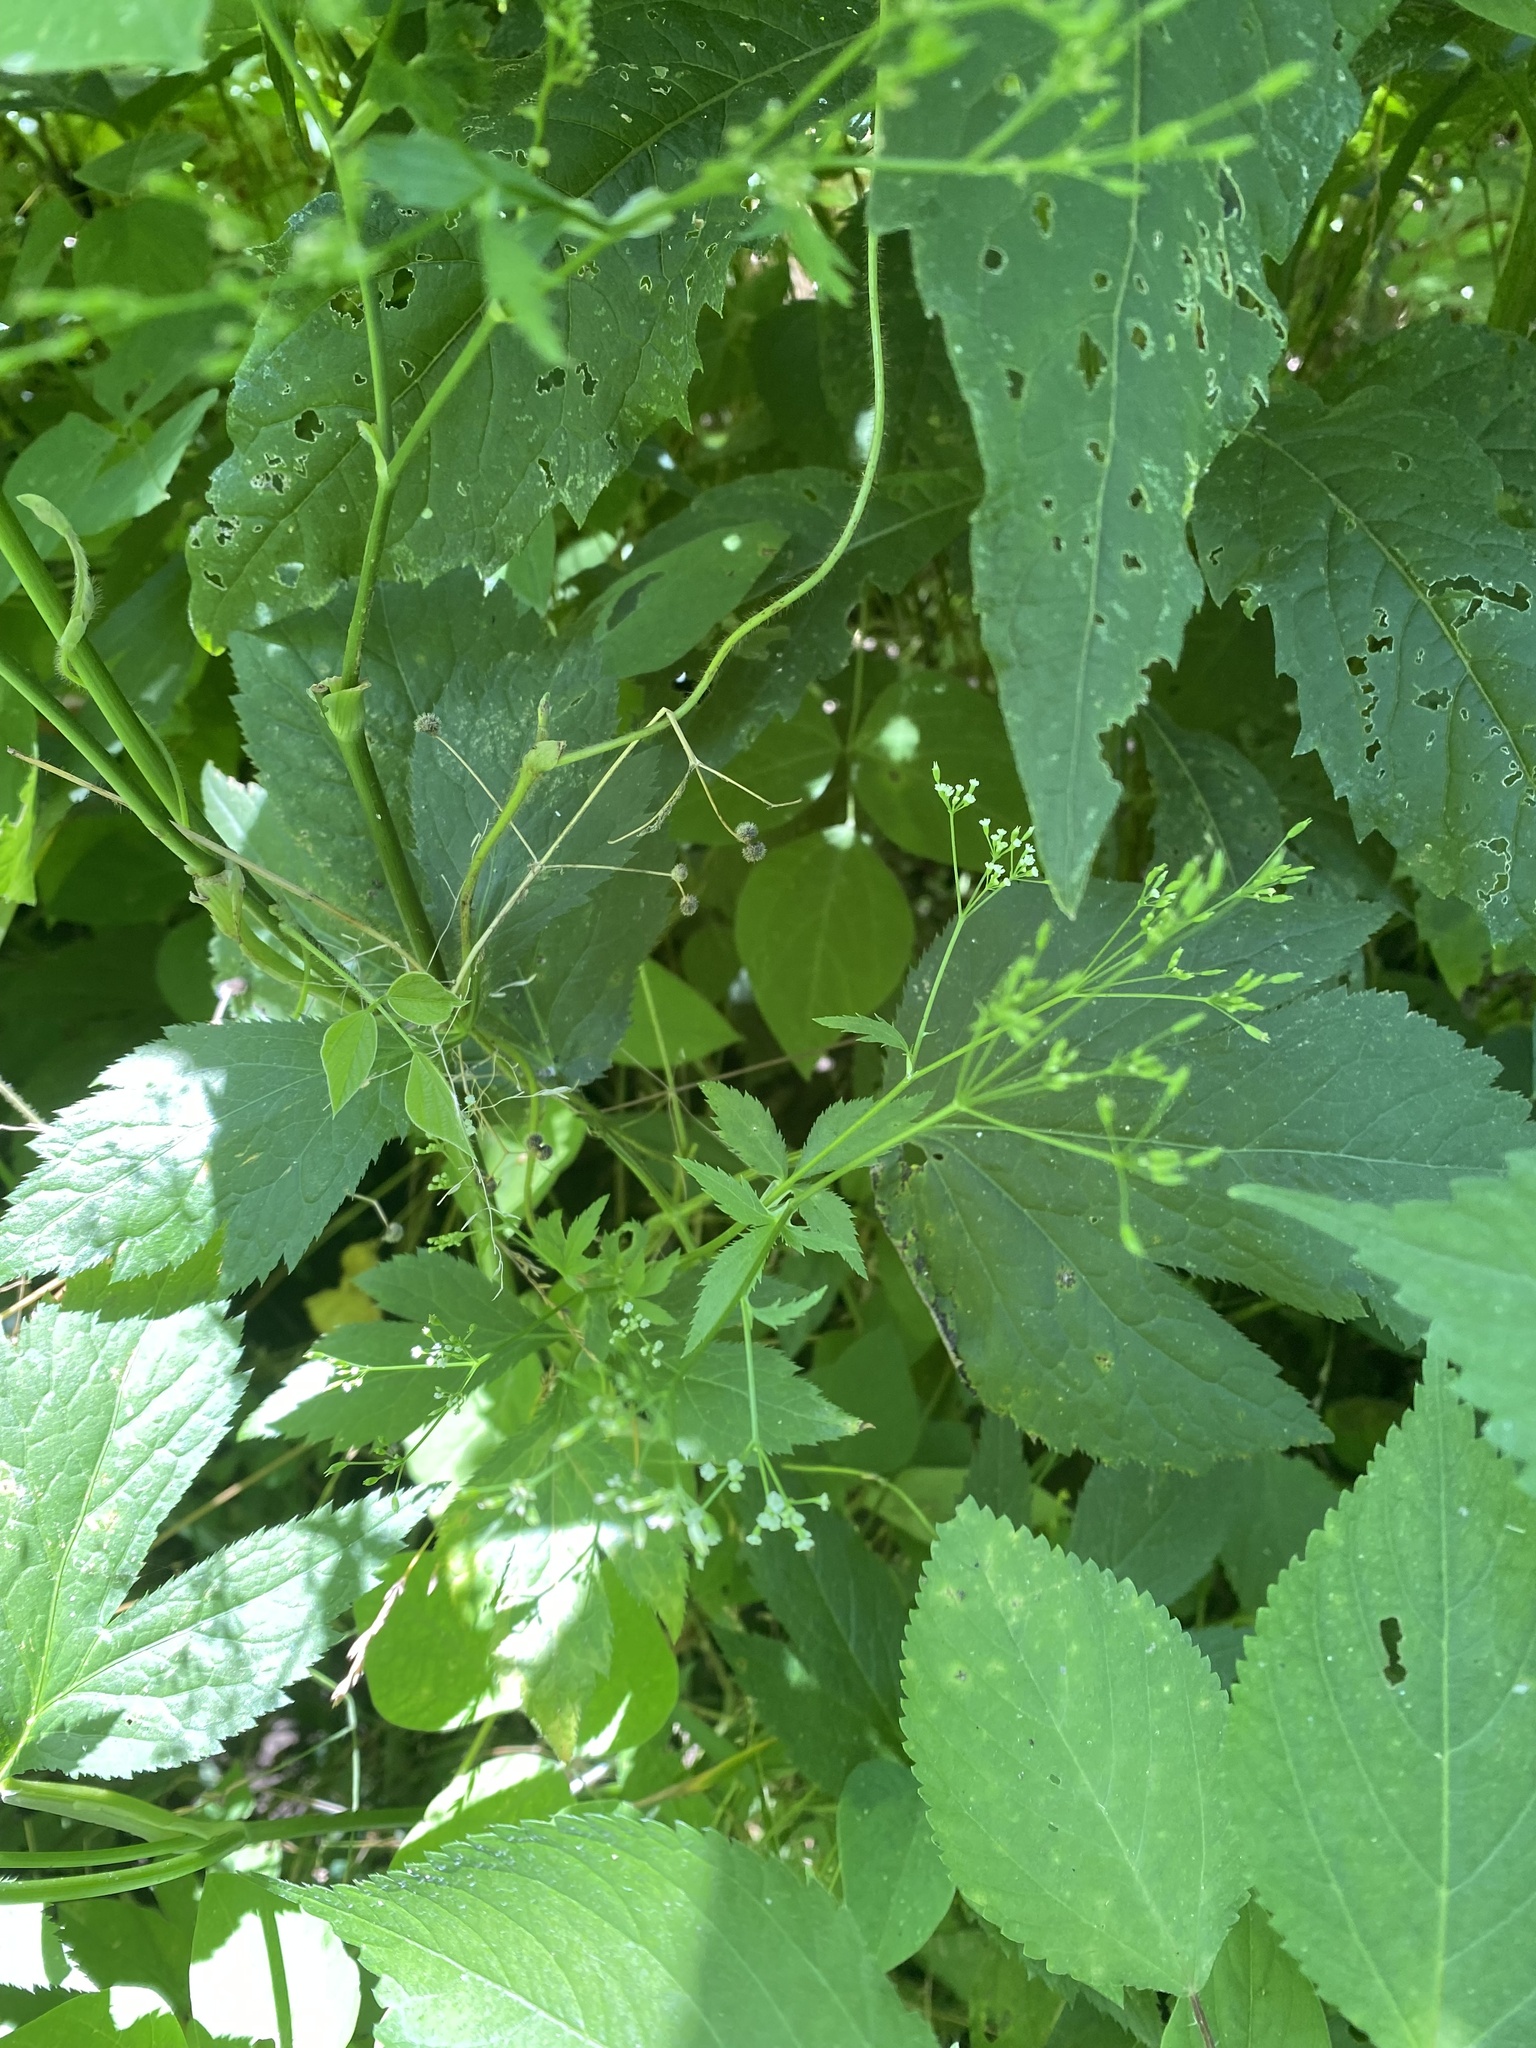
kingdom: Plantae
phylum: Tracheophyta
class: Magnoliopsida
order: Apiales
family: Apiaceae
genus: Cryptotaenia
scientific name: Cryptotaenia canadensis
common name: Honewort
